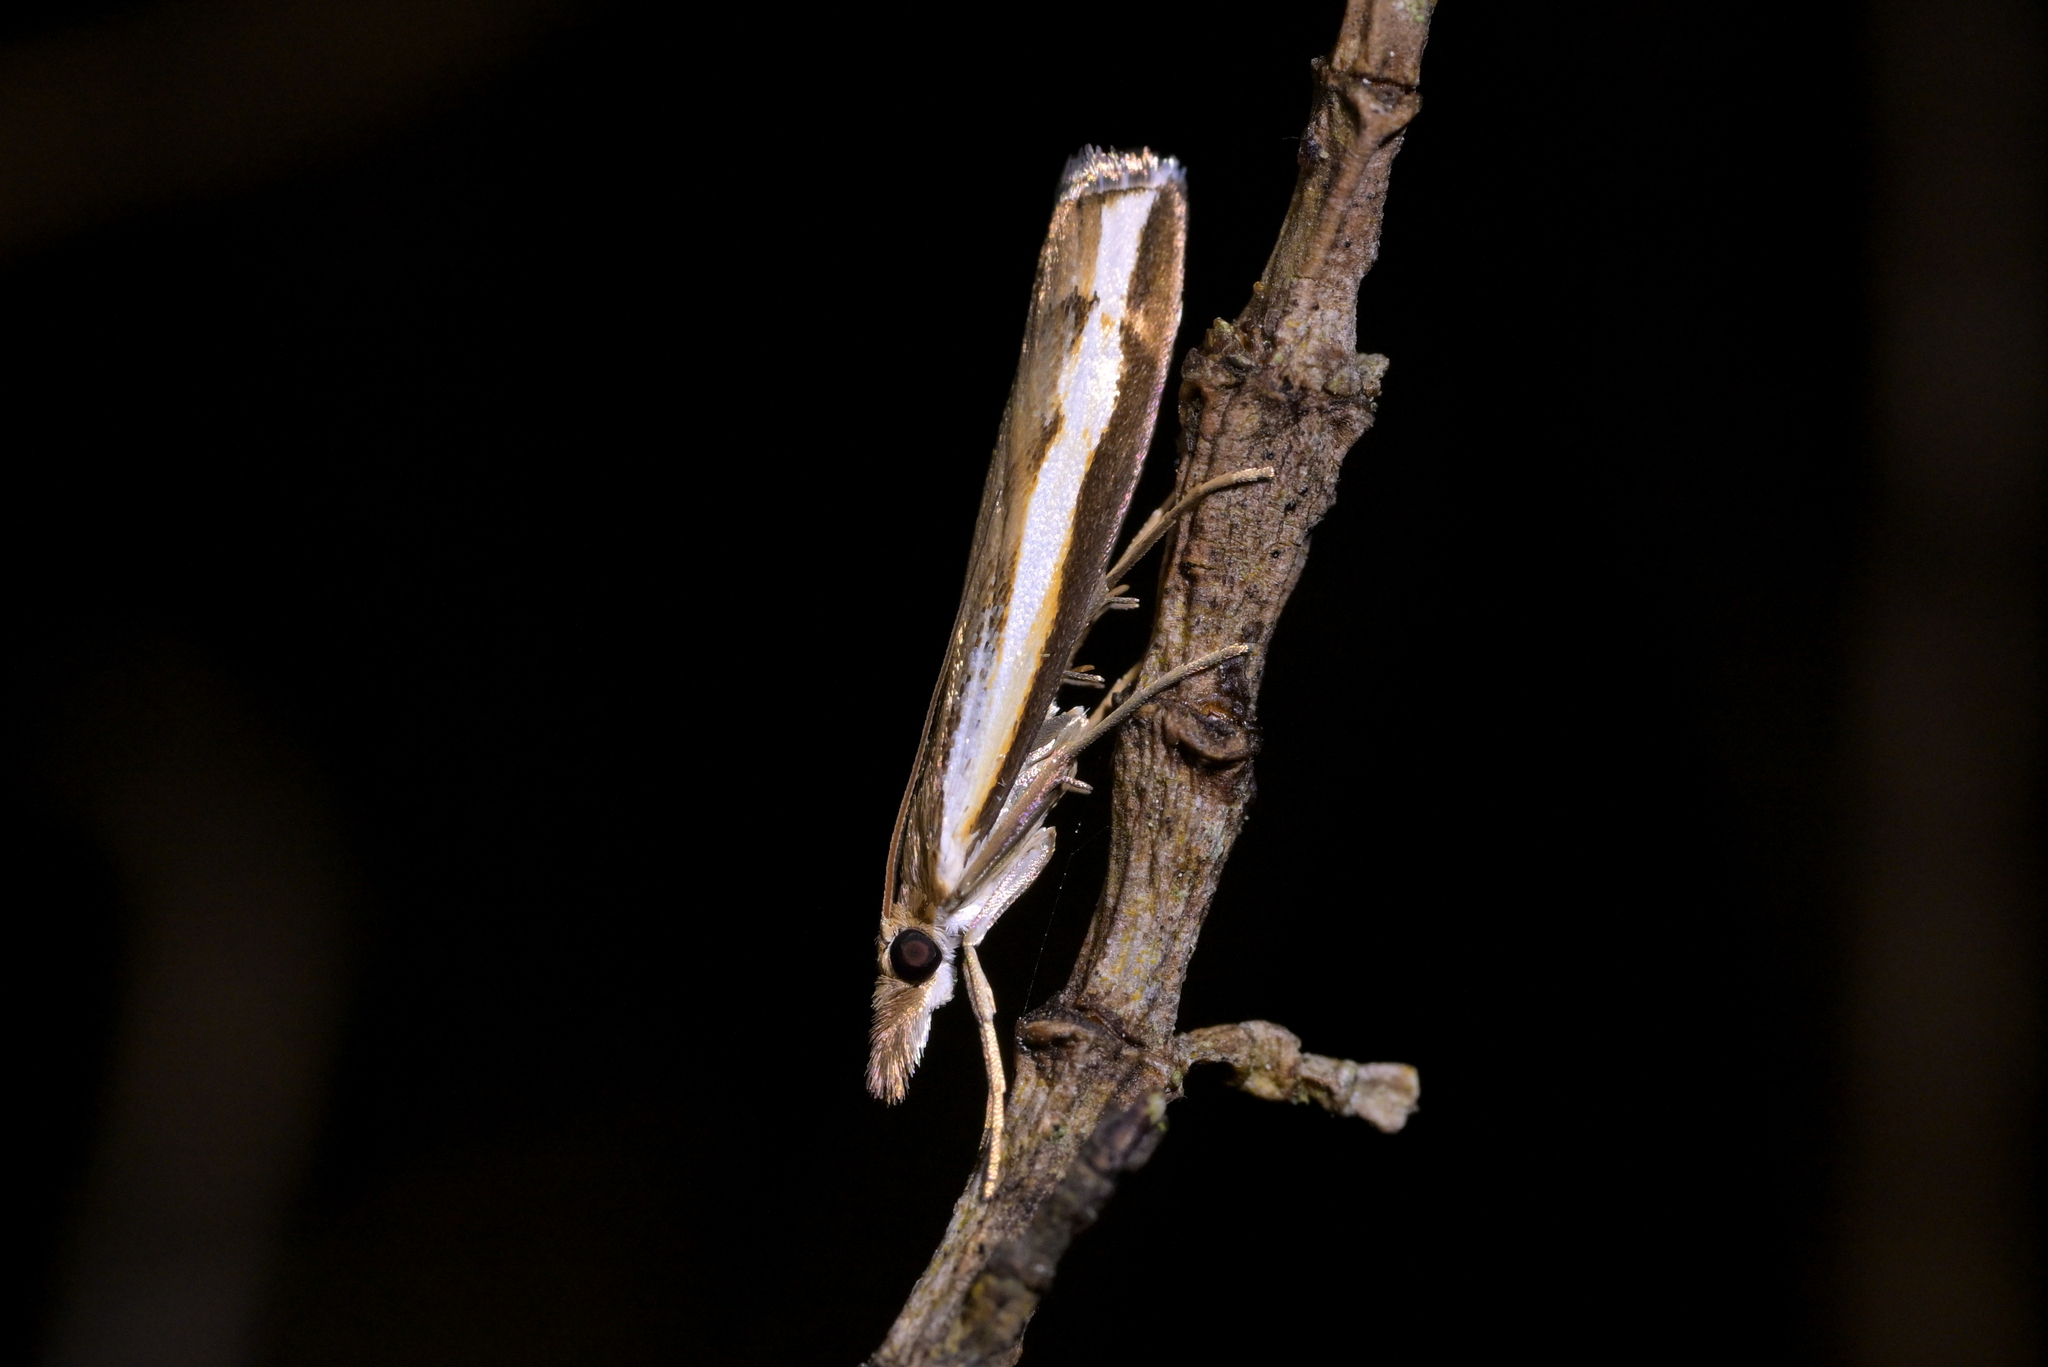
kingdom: Animalia
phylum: Arthropoda
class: Insecta
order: Lepidoptera
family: Crambidae
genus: Orocrambus
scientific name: Orocrambus flexuosellus
